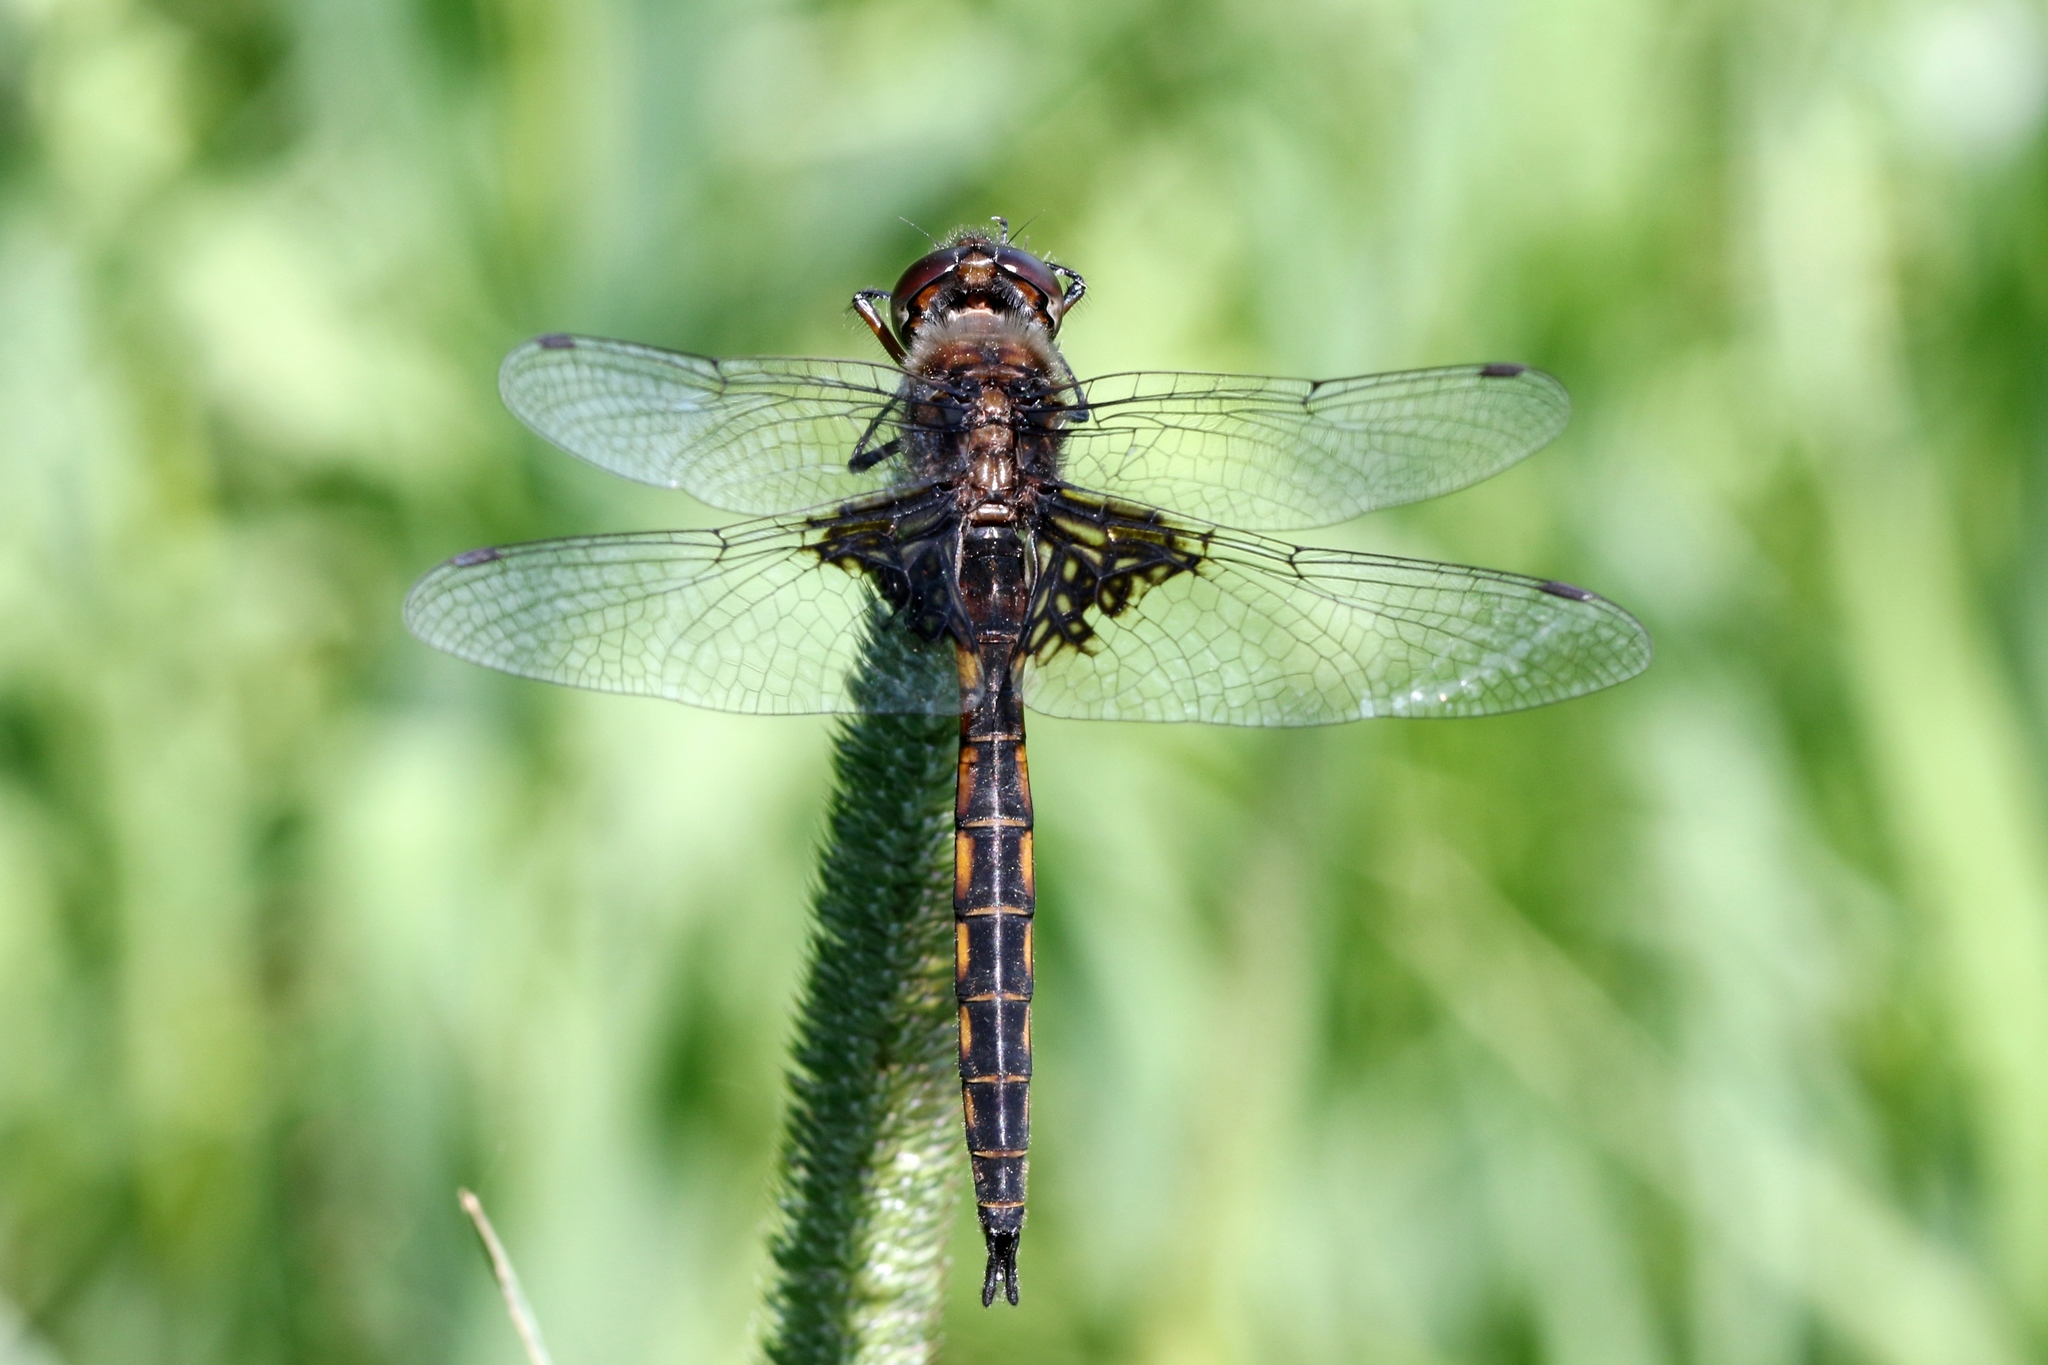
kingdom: Animalia
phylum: Arthropoda
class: Insecta
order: Odonata
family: Corduliidae
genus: Epitheca
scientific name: Epitheca cynosura
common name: Common baskettail
